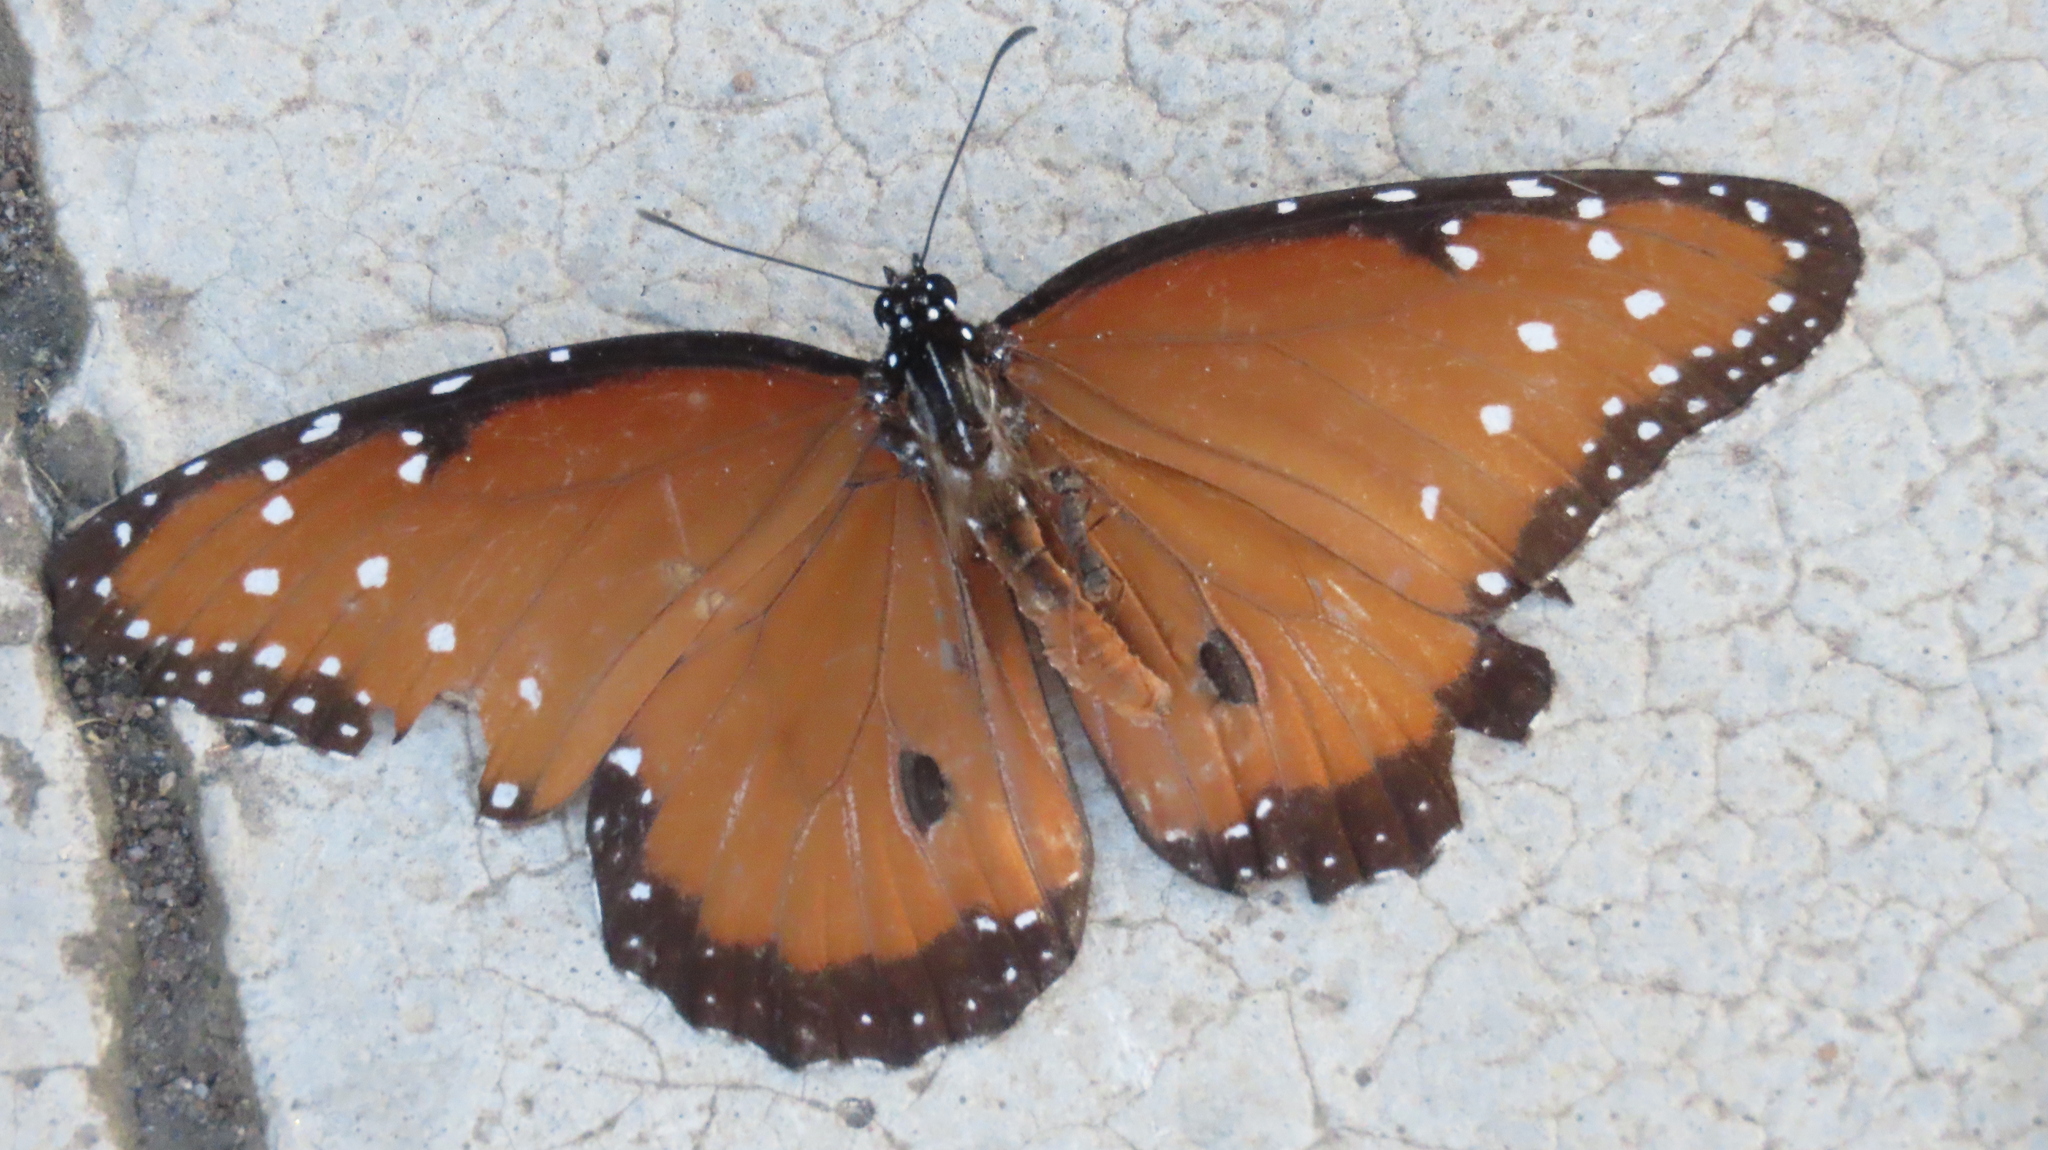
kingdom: Animalia
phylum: Arthropoda
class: Insecta
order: Lepidoptera
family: Nymphalidae
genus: Danaus
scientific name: Danaus gilippus
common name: Queen
